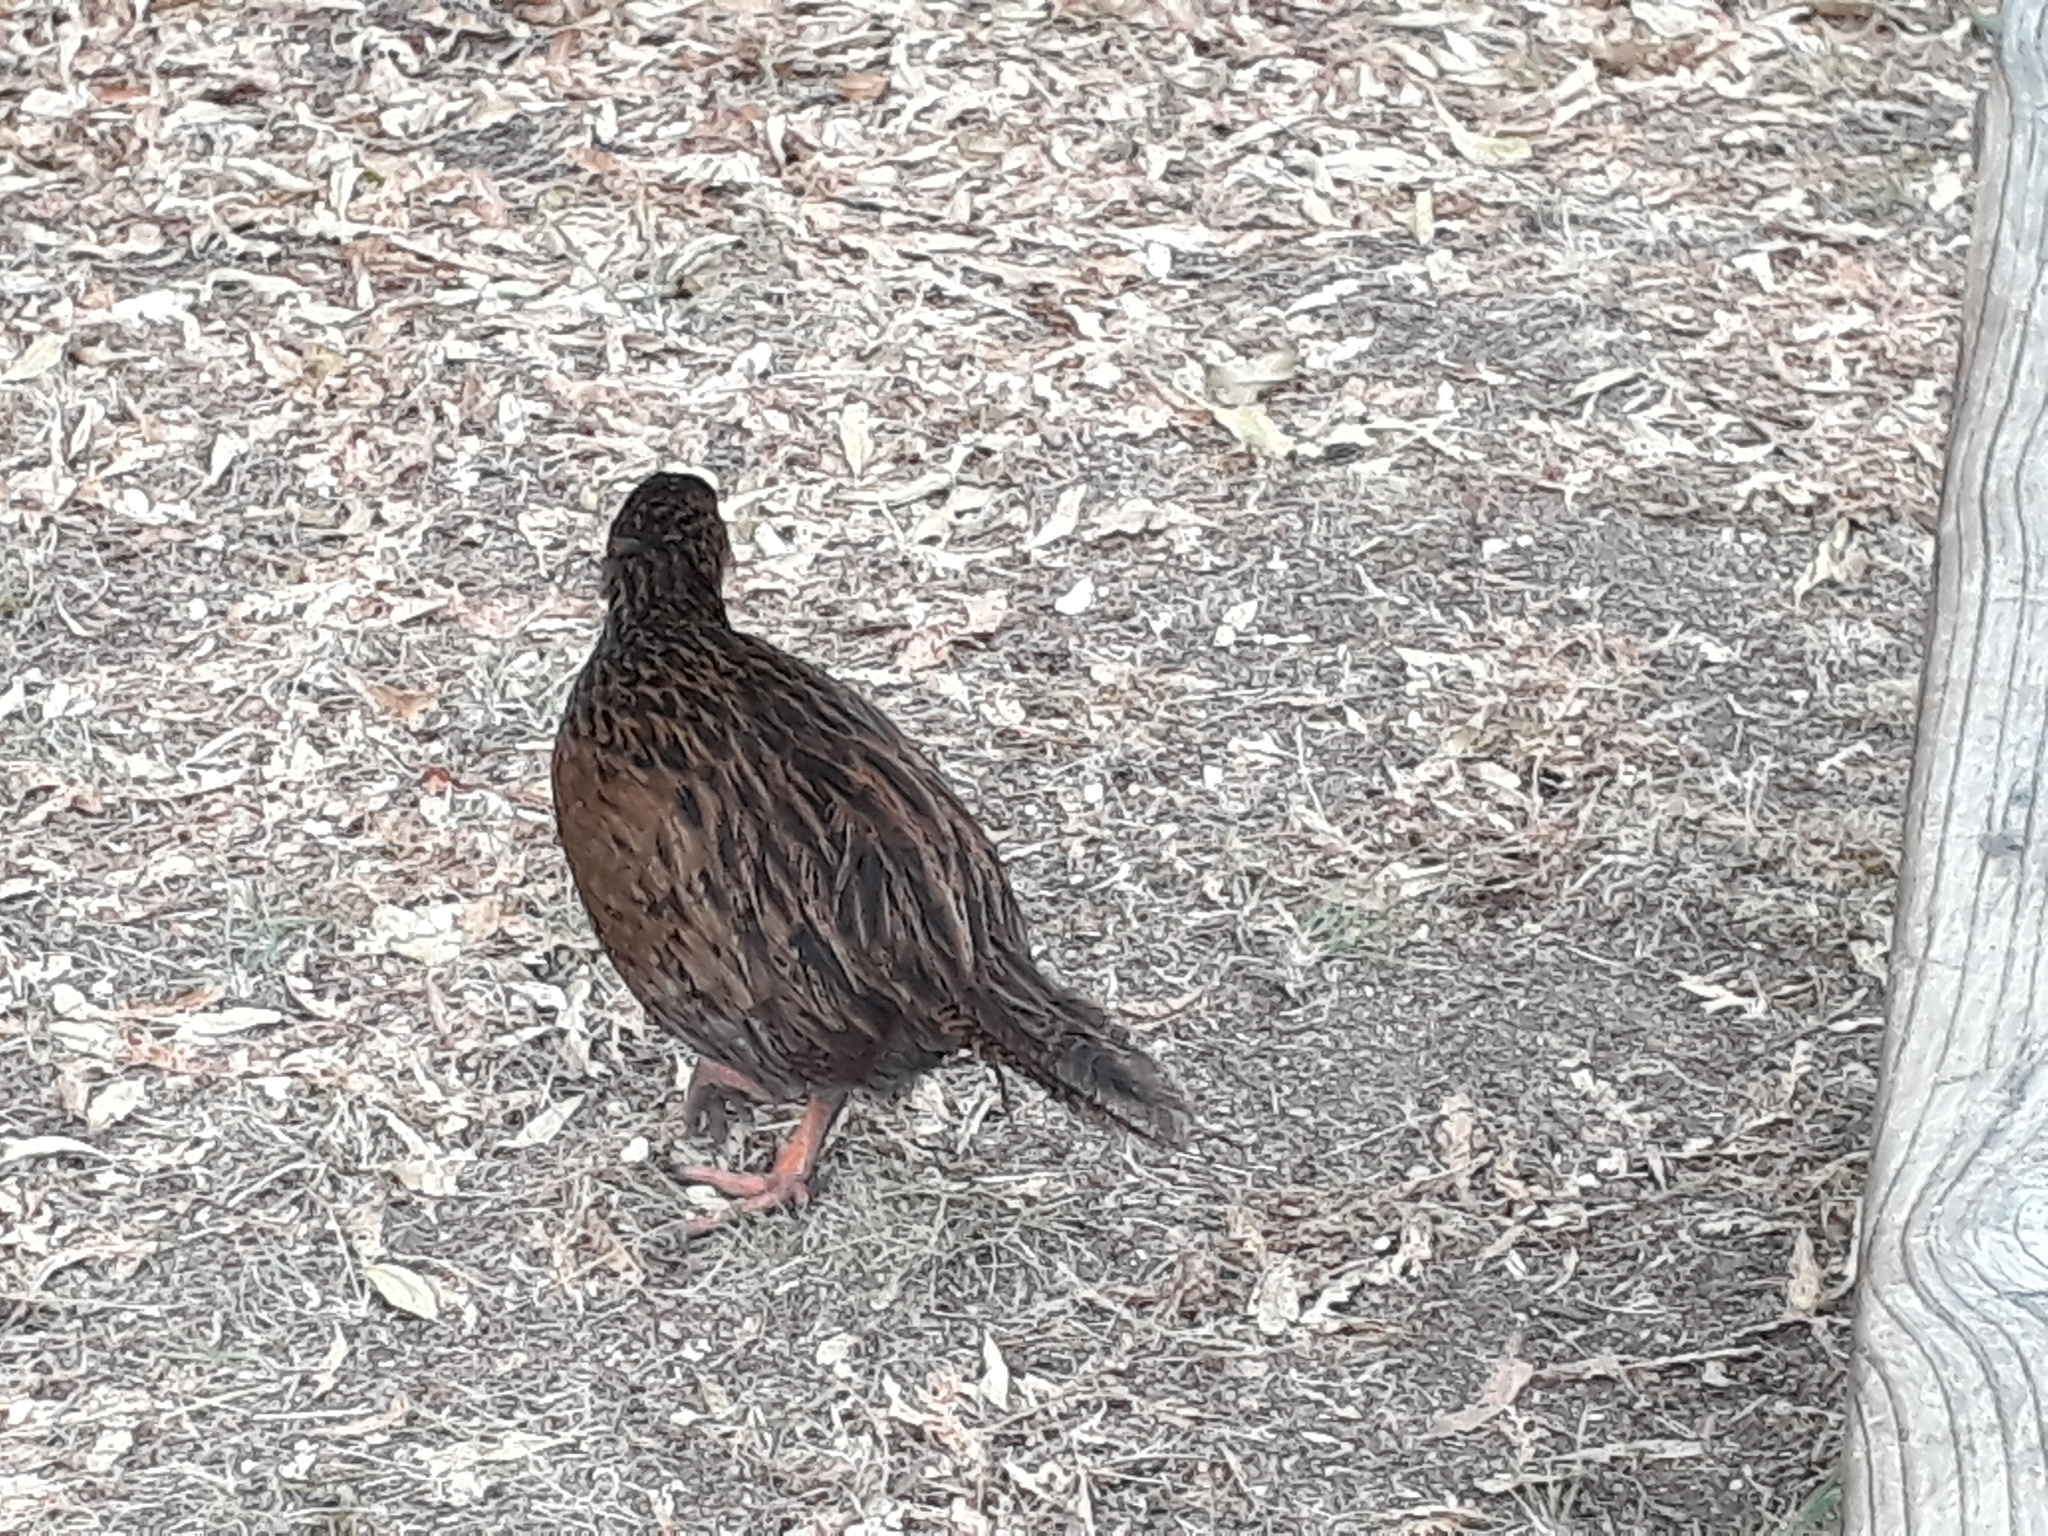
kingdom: Animalia
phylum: Chordata
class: Aves
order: Gruiformes
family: Rallidae
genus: Gallirallus
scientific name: Gallirallus australis
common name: Weka
